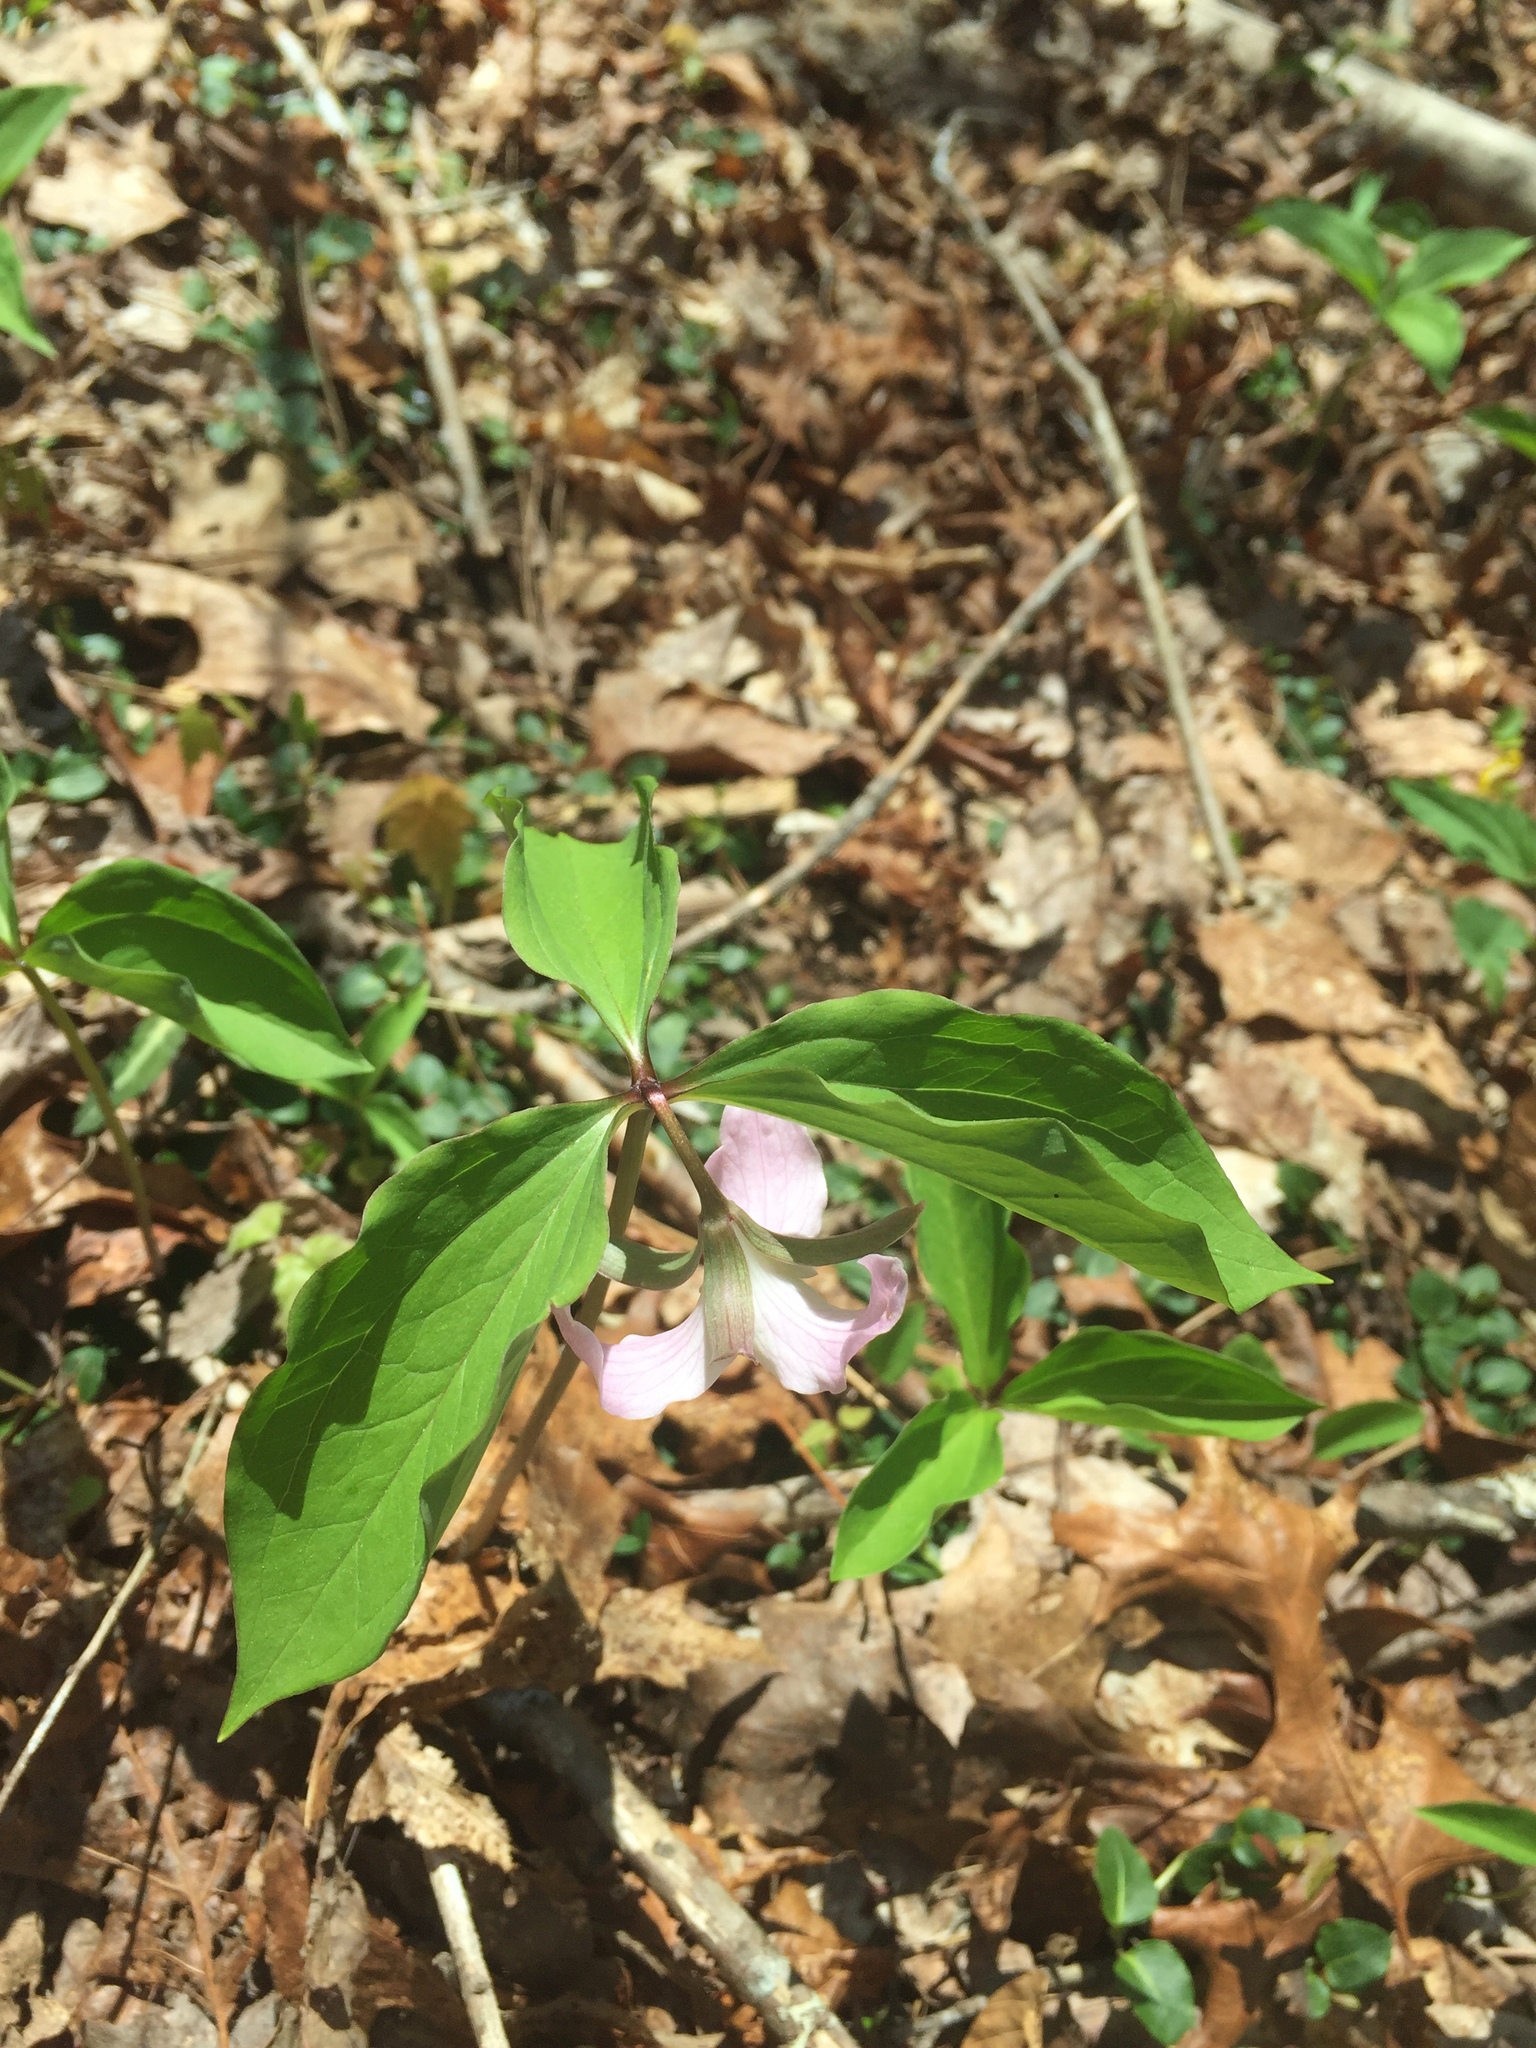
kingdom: Plantae
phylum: Tracheophyta
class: Liliopsida
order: Liliales
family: Melanthiaceae
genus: Trillium
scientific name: Trillium catesbaei
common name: Bashful trillium
